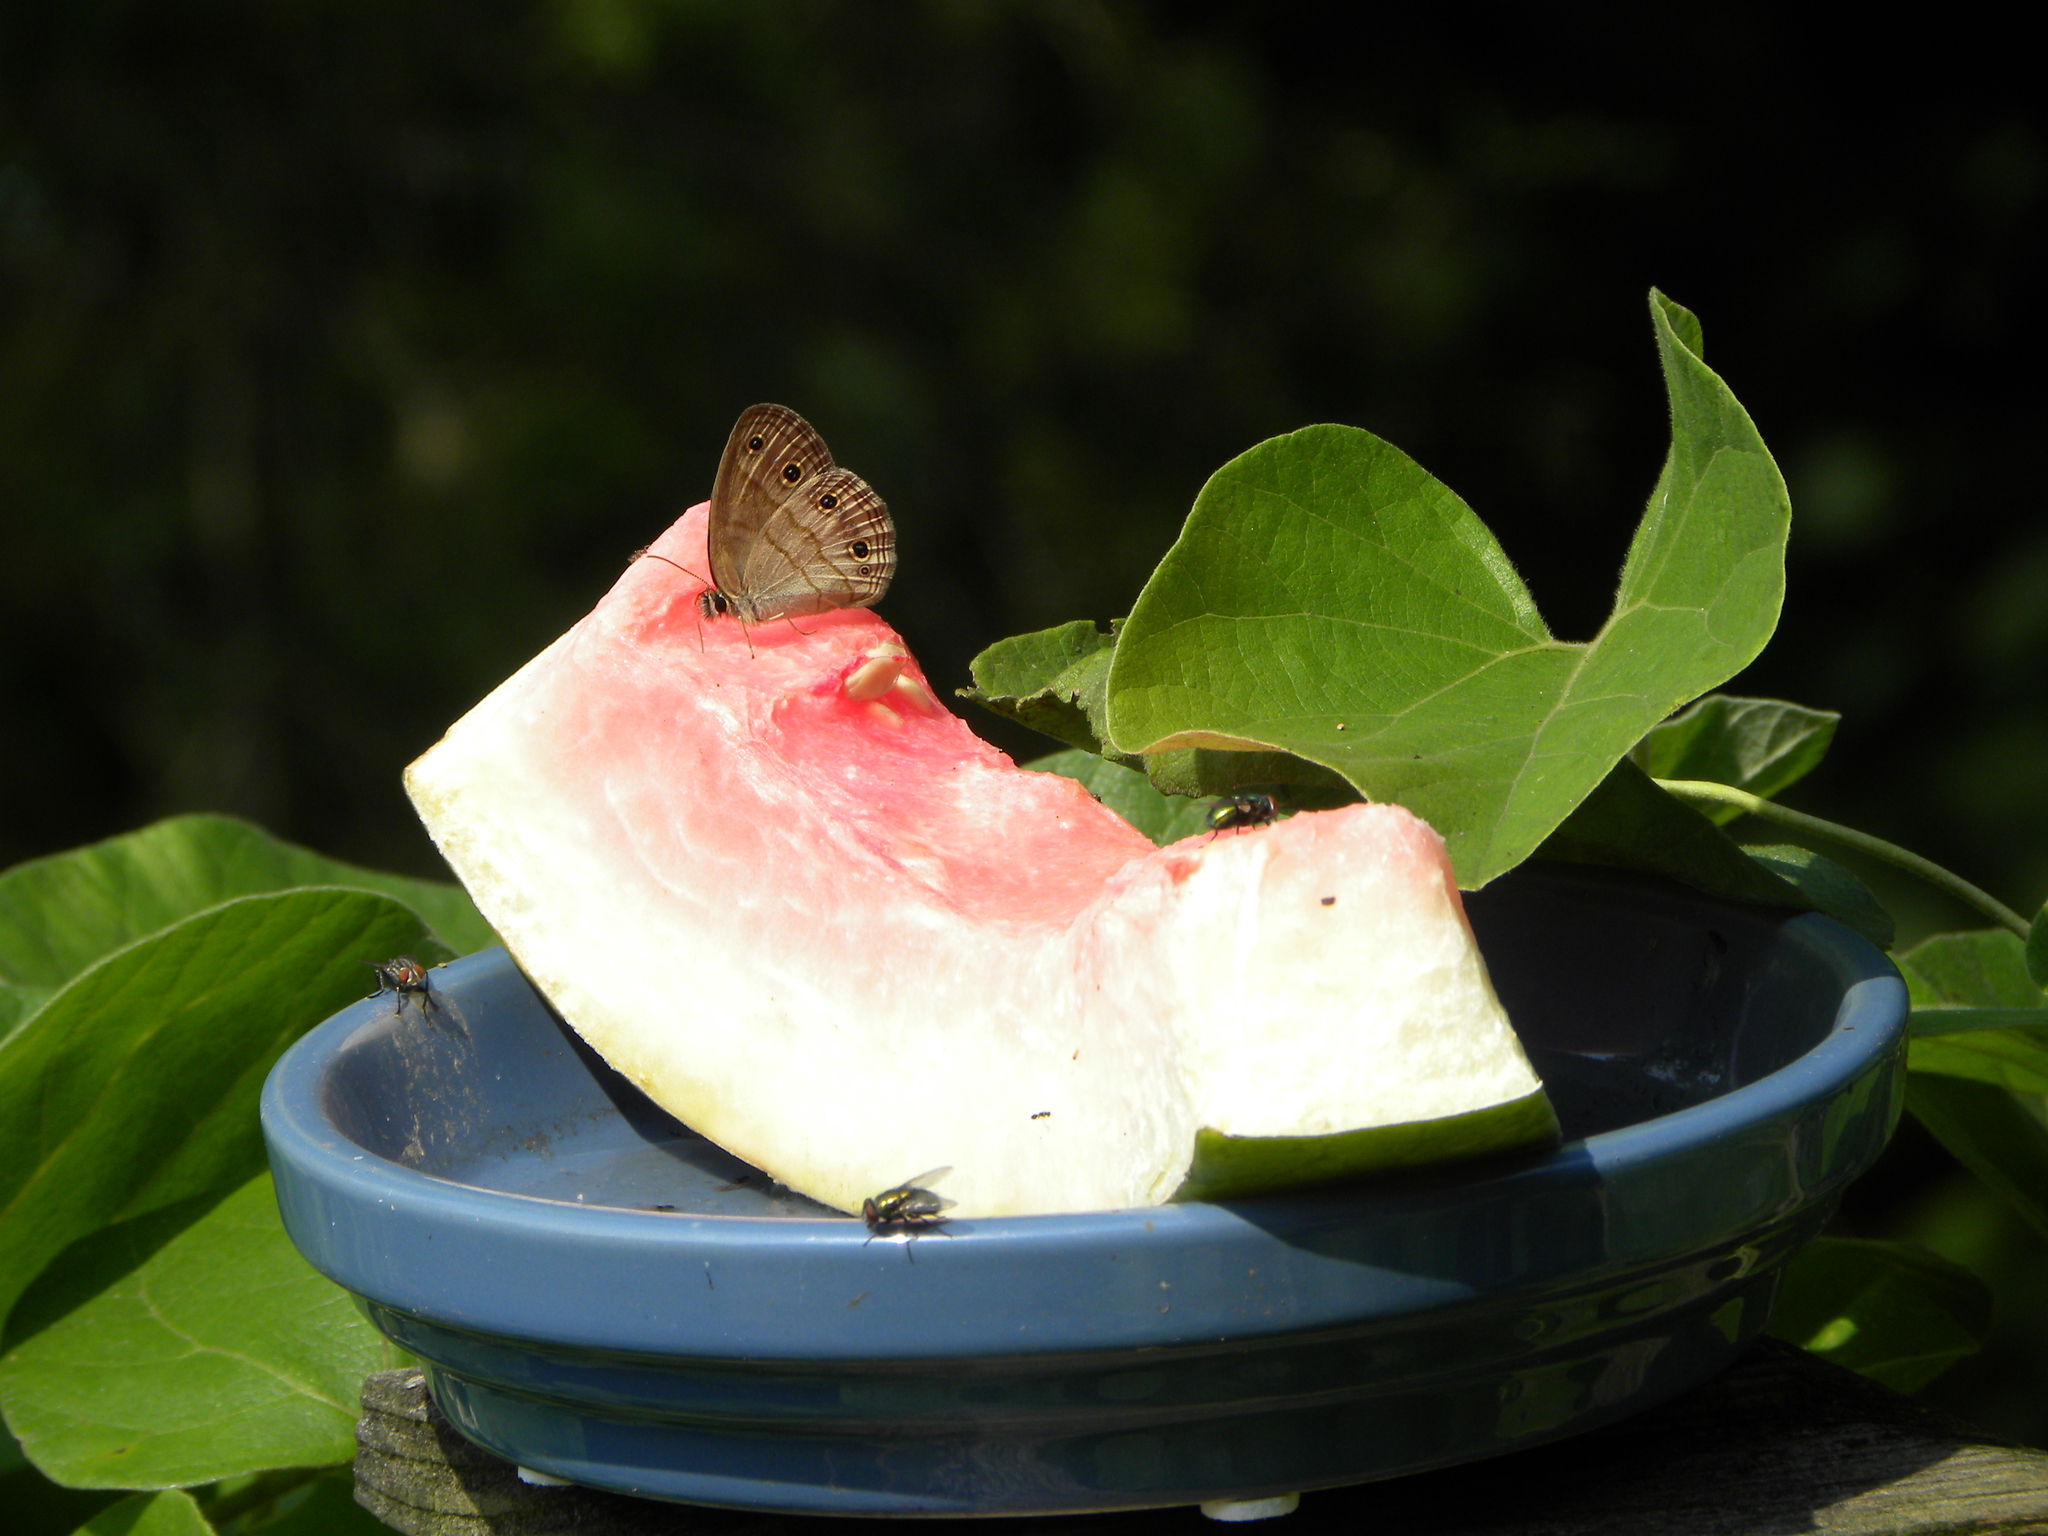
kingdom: Animalia
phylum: Arthropoda
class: Insecta
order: Lepidoptera
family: Nymphalidae
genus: Euptychia
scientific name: Euptychia cymela
